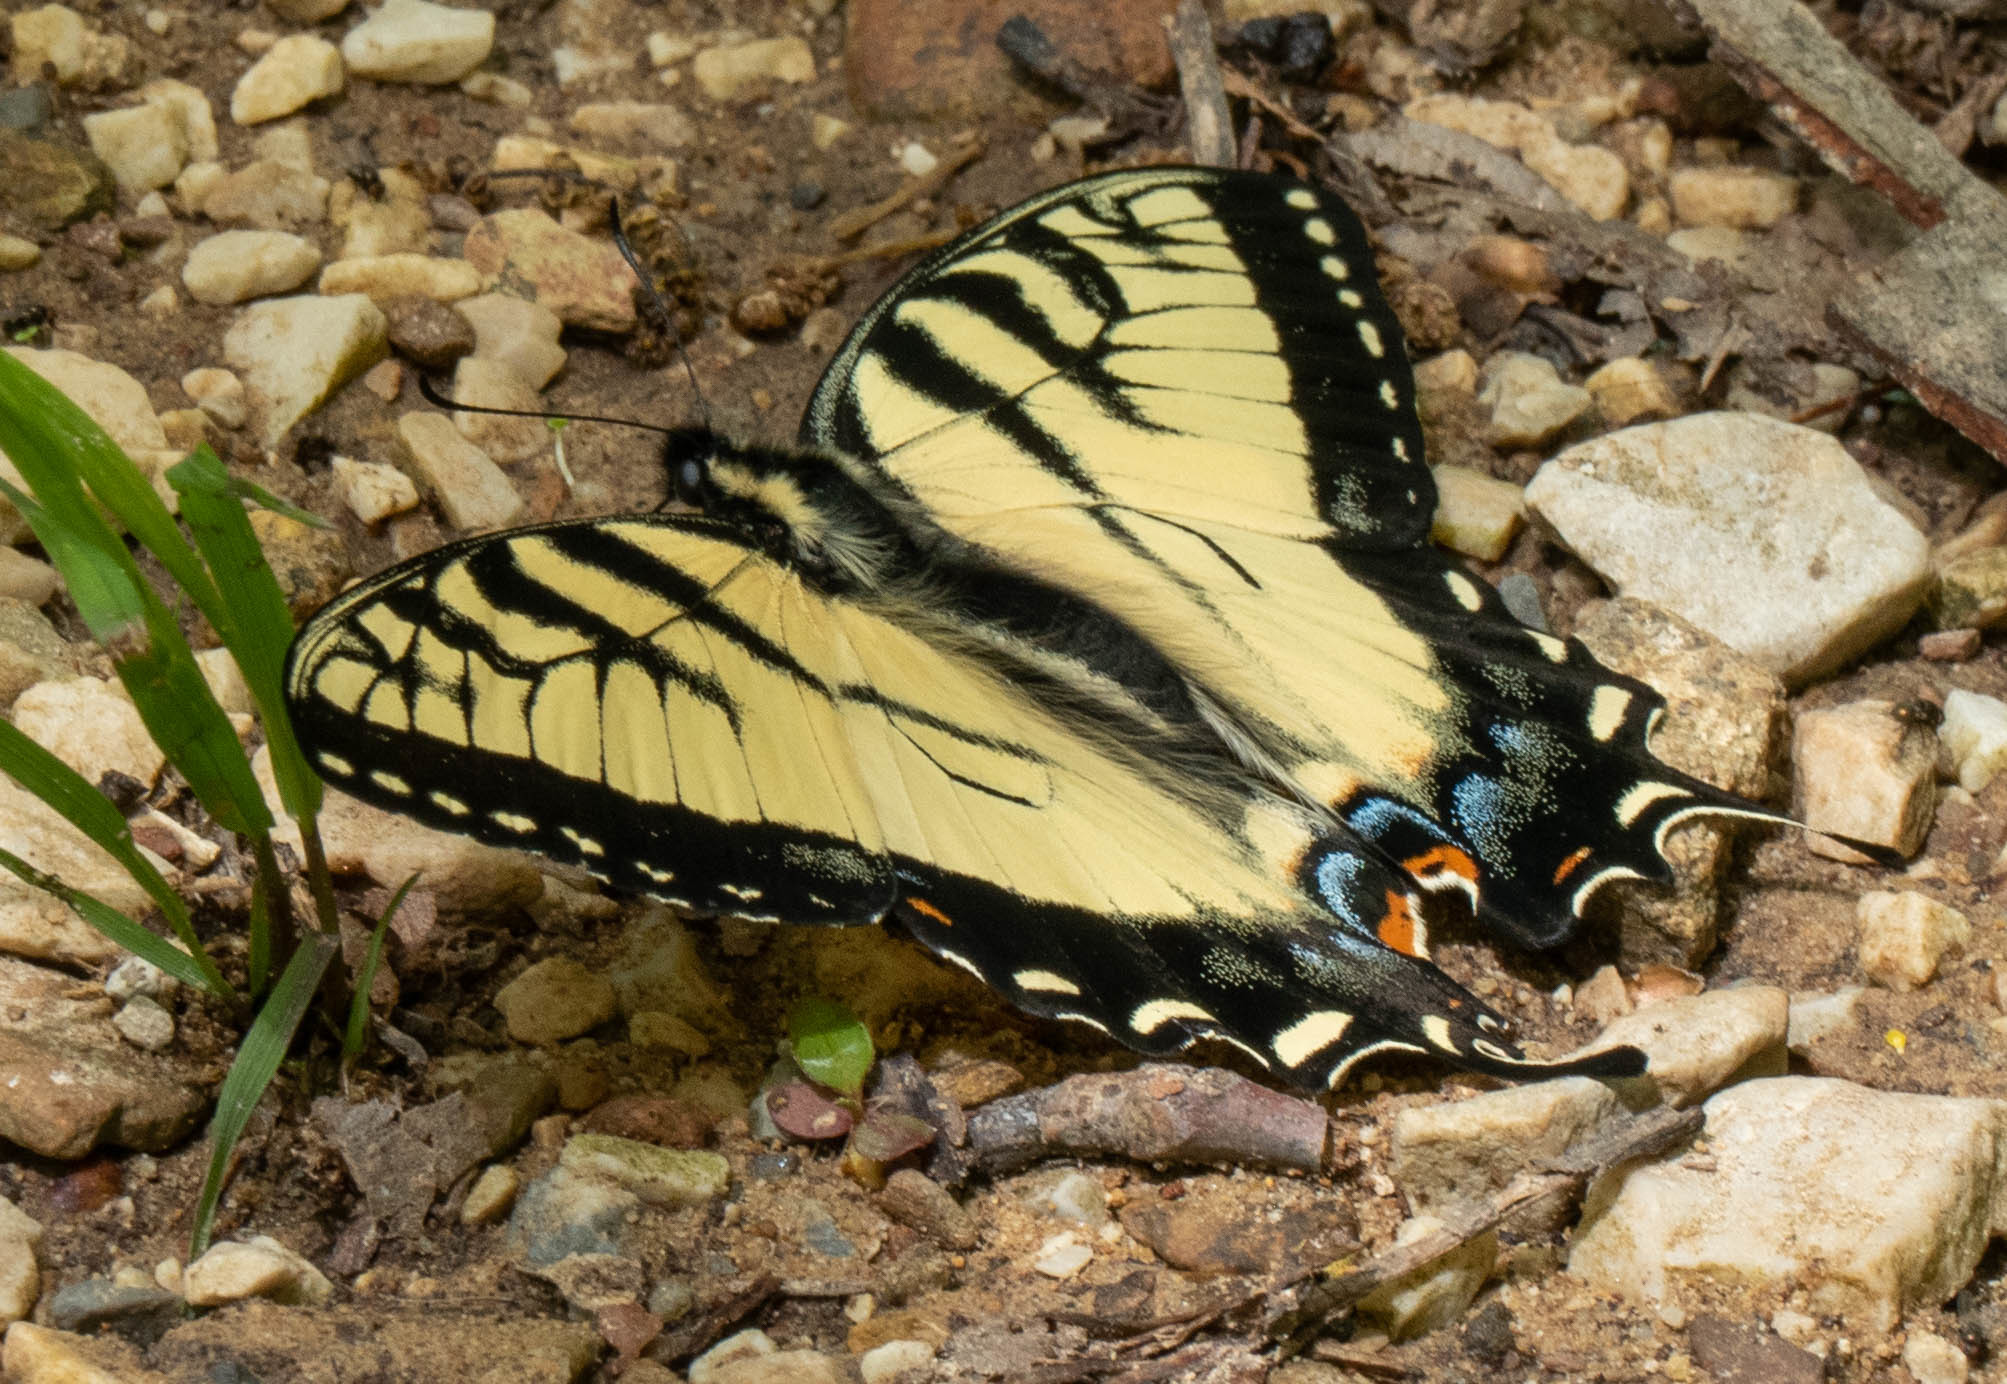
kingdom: Animalia
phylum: Arthropoda
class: Insecta
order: Lepidoptera
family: Papilionidae
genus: Papilio
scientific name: Papilio glaucus
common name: Tiger swallowtail
